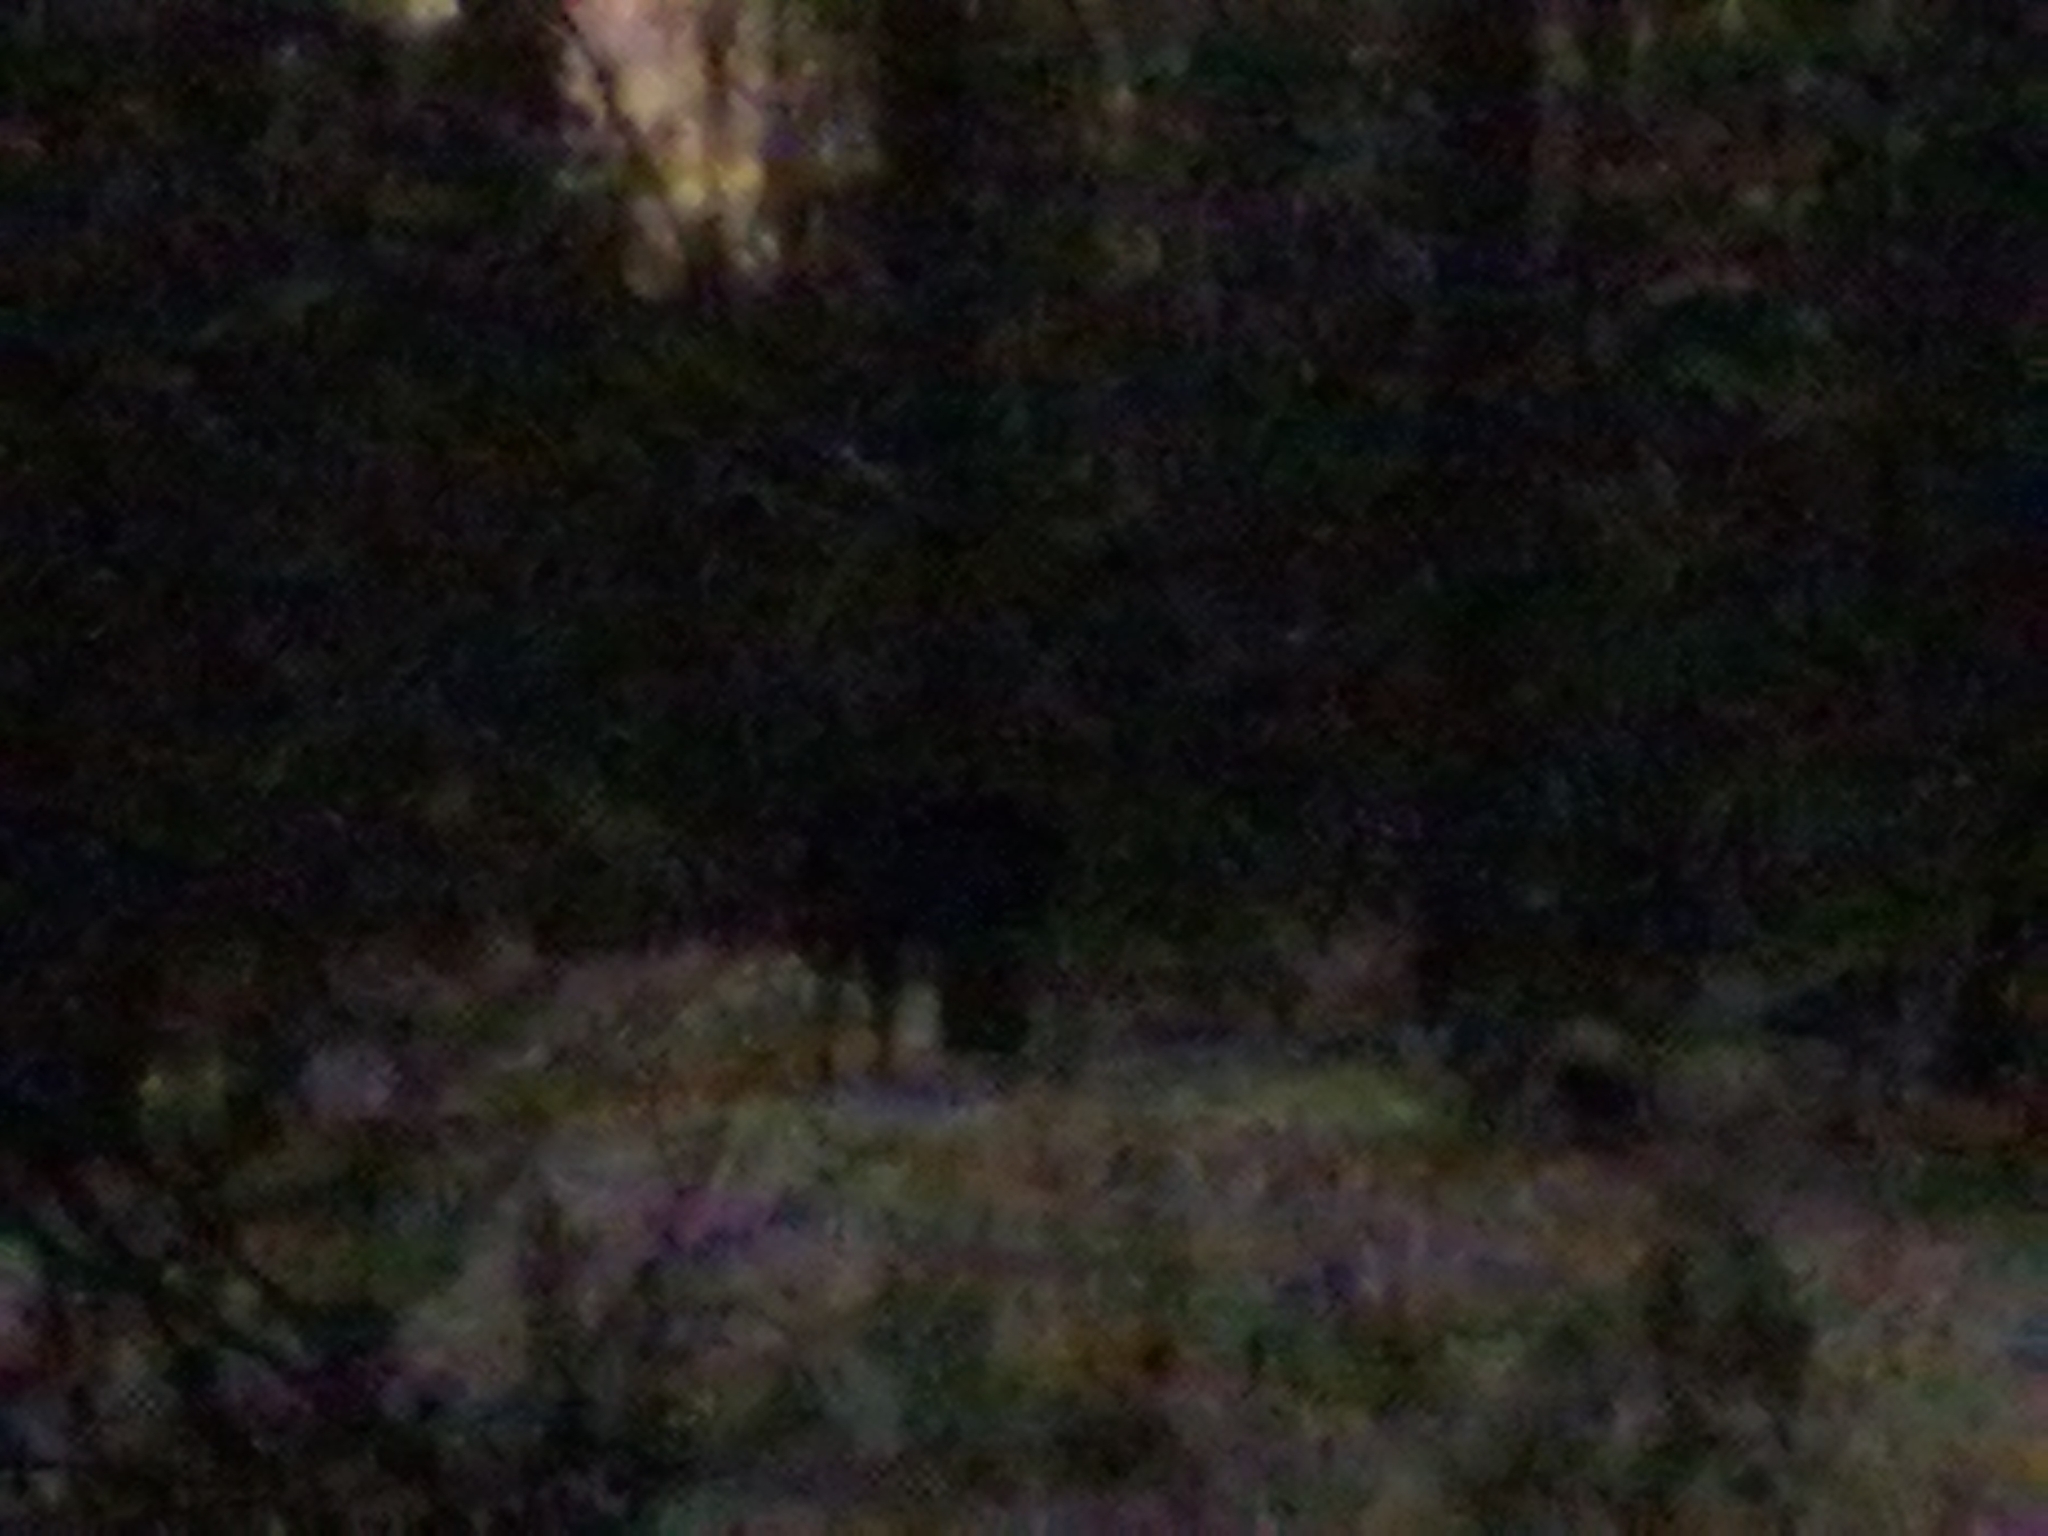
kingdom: Animalia
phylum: Chordata
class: Mammalia
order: Artiodactyla
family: Cervidae
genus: Alces
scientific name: Alces alces
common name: Moose
